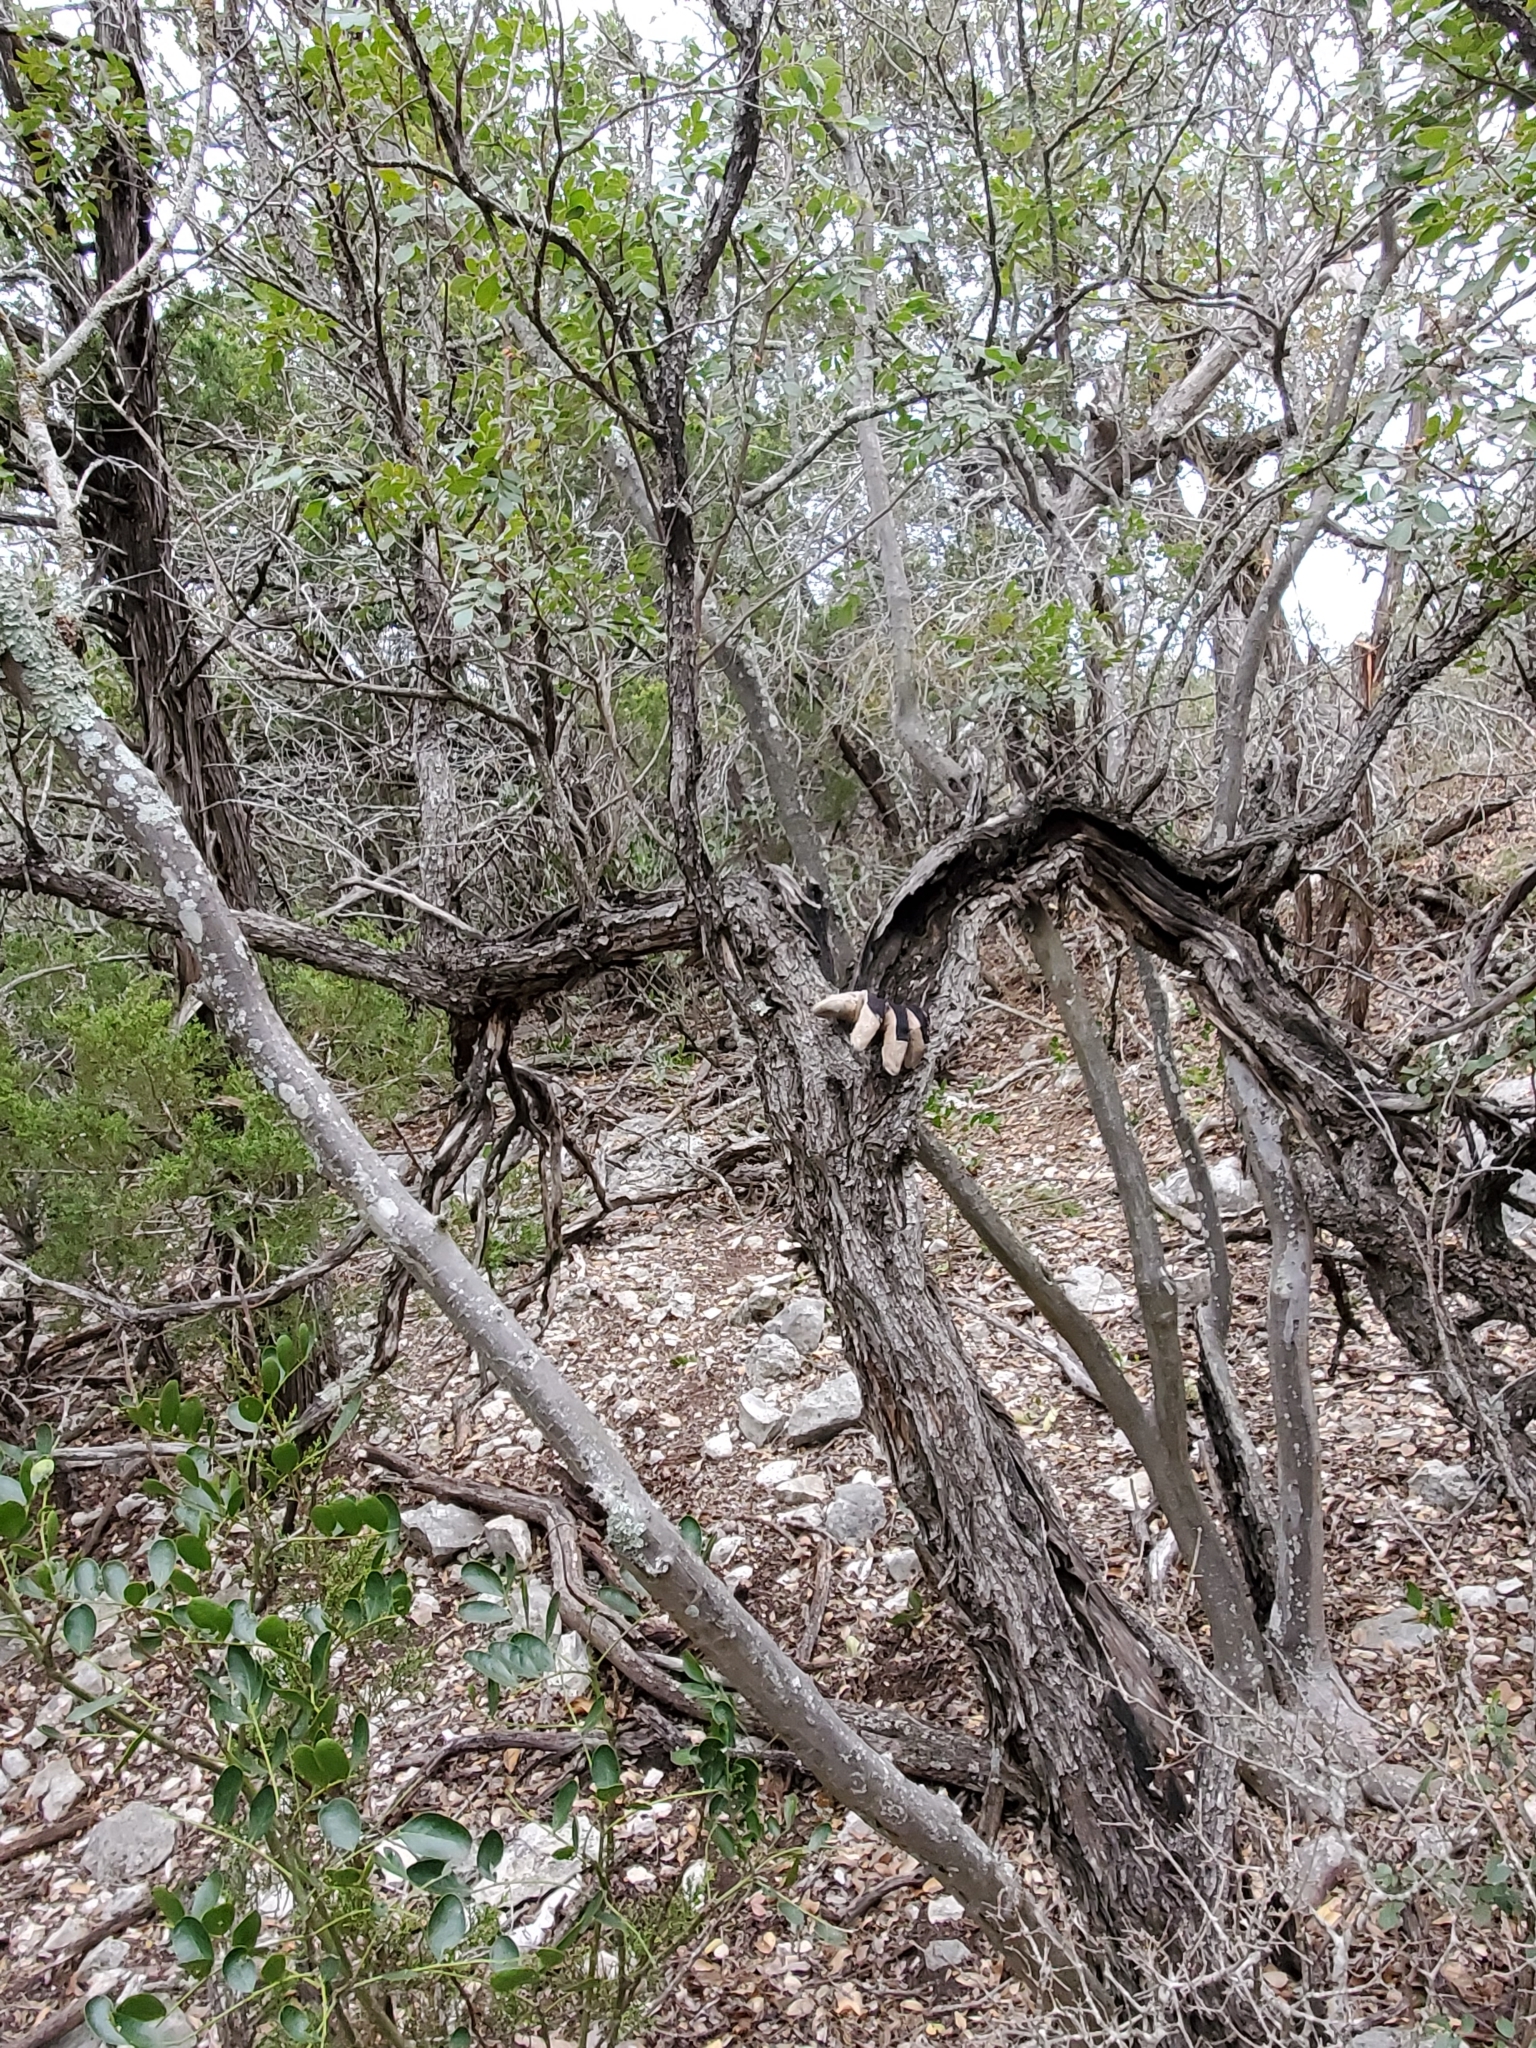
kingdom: Plantae
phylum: Tracheophyta
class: Magnoliopsida
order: Sapindales
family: Anacardiaceae
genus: Rhus
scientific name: Rhus virens
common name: Evergreen sumac
